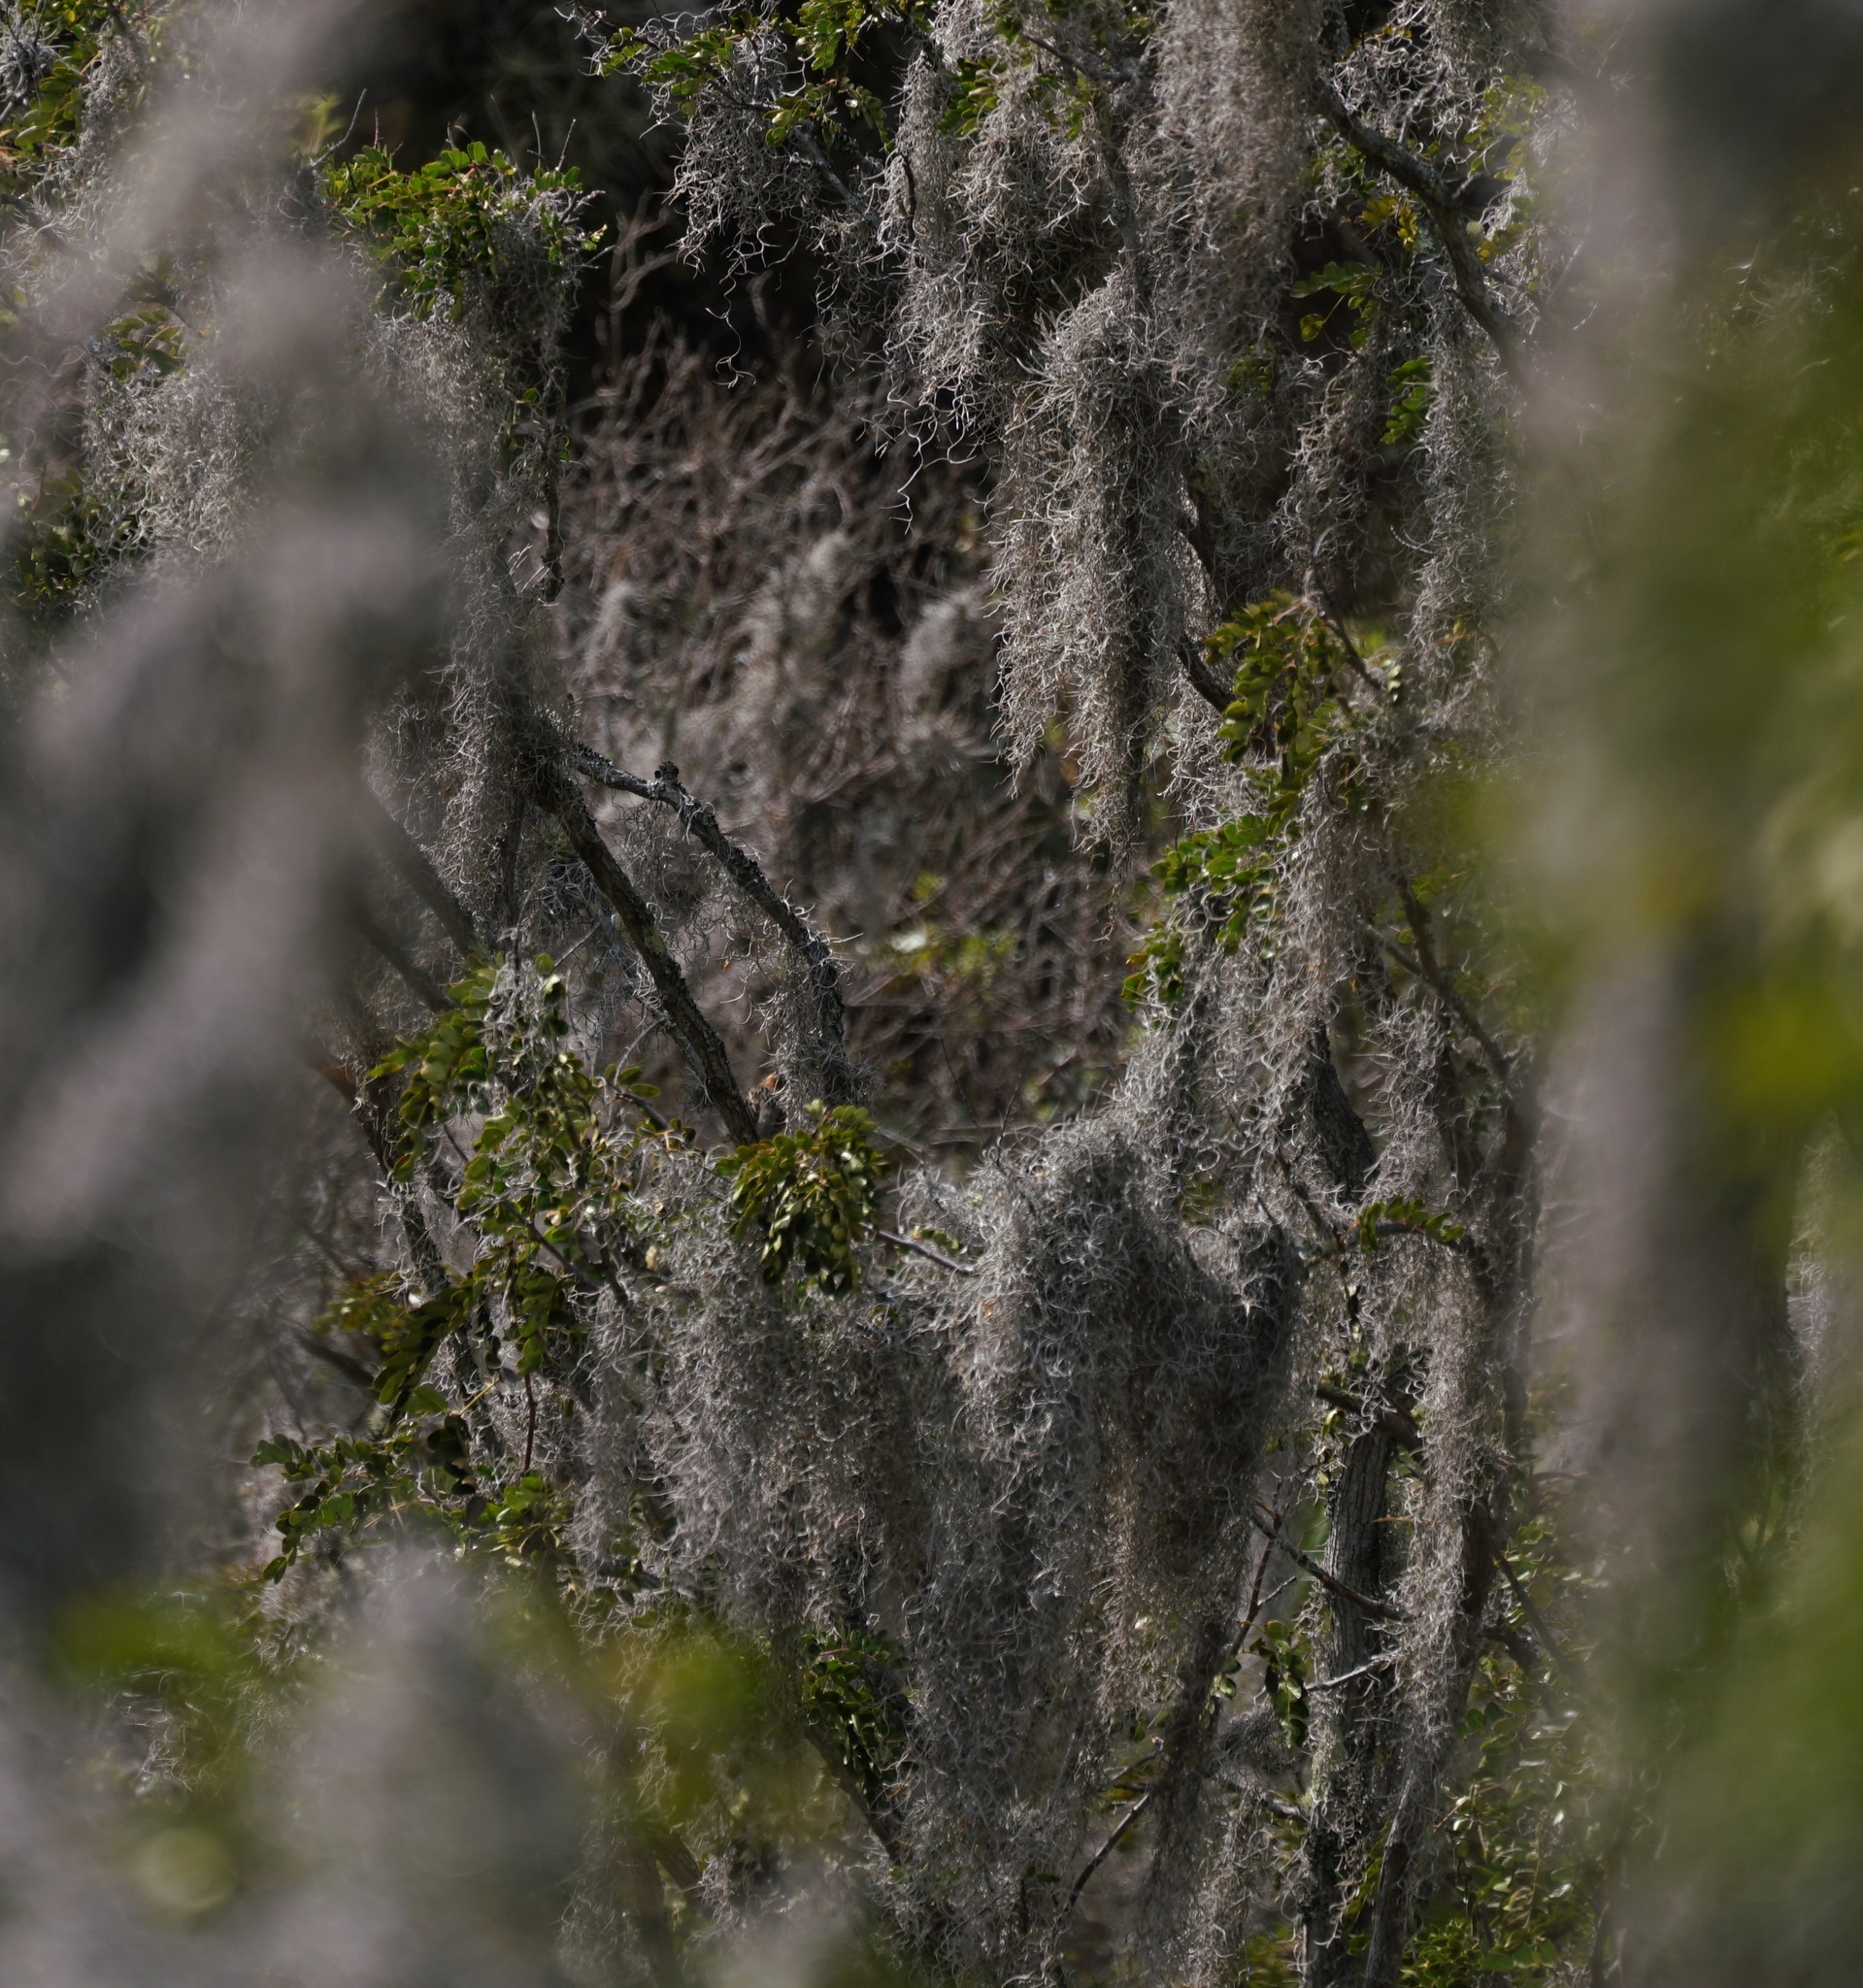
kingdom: Plantae
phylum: Tracheophyta
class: Liliopsida
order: Poales
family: Bromeliaceae
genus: Tillandsia
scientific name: Tillandsia usneoides
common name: Spanish moss
